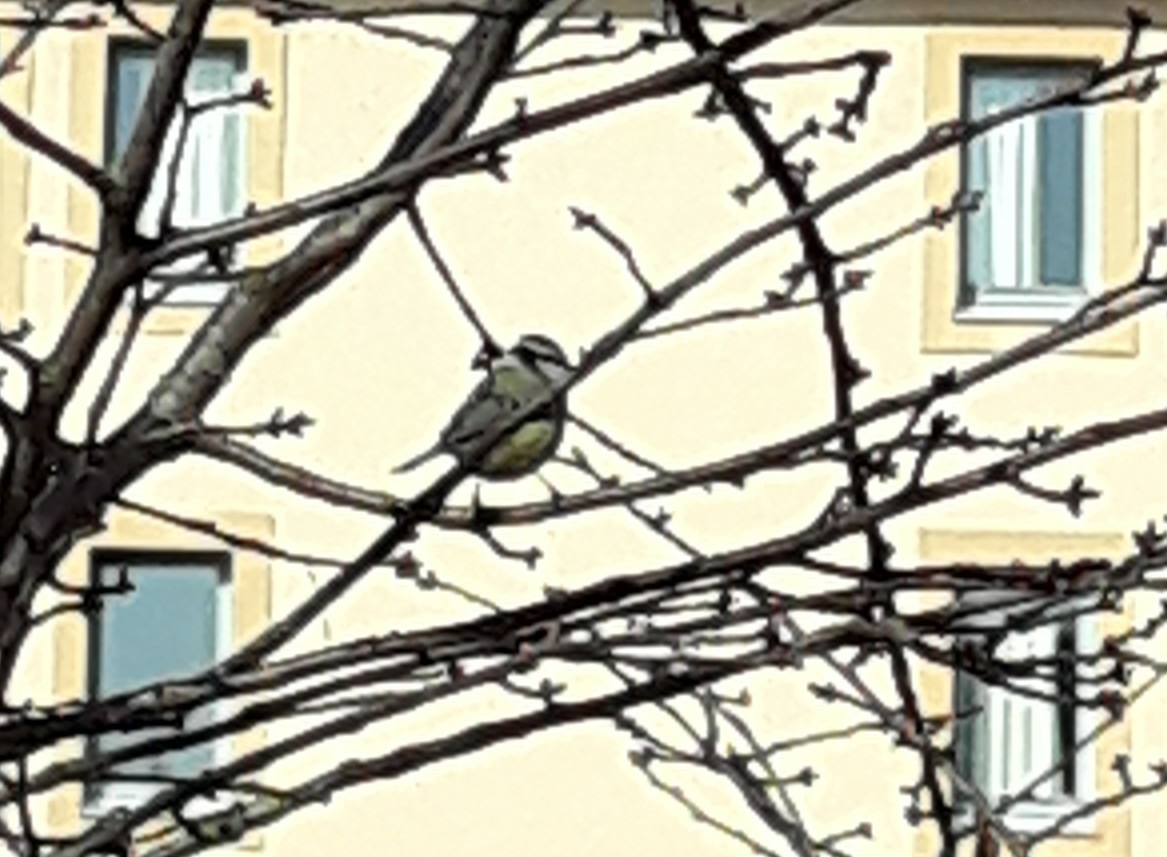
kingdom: Animalia
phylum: Chordata
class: Aves
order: Passeriformes
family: Paridae
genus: Cyanistes
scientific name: Cyanistes caeruleus
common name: Eurasian blue tit
